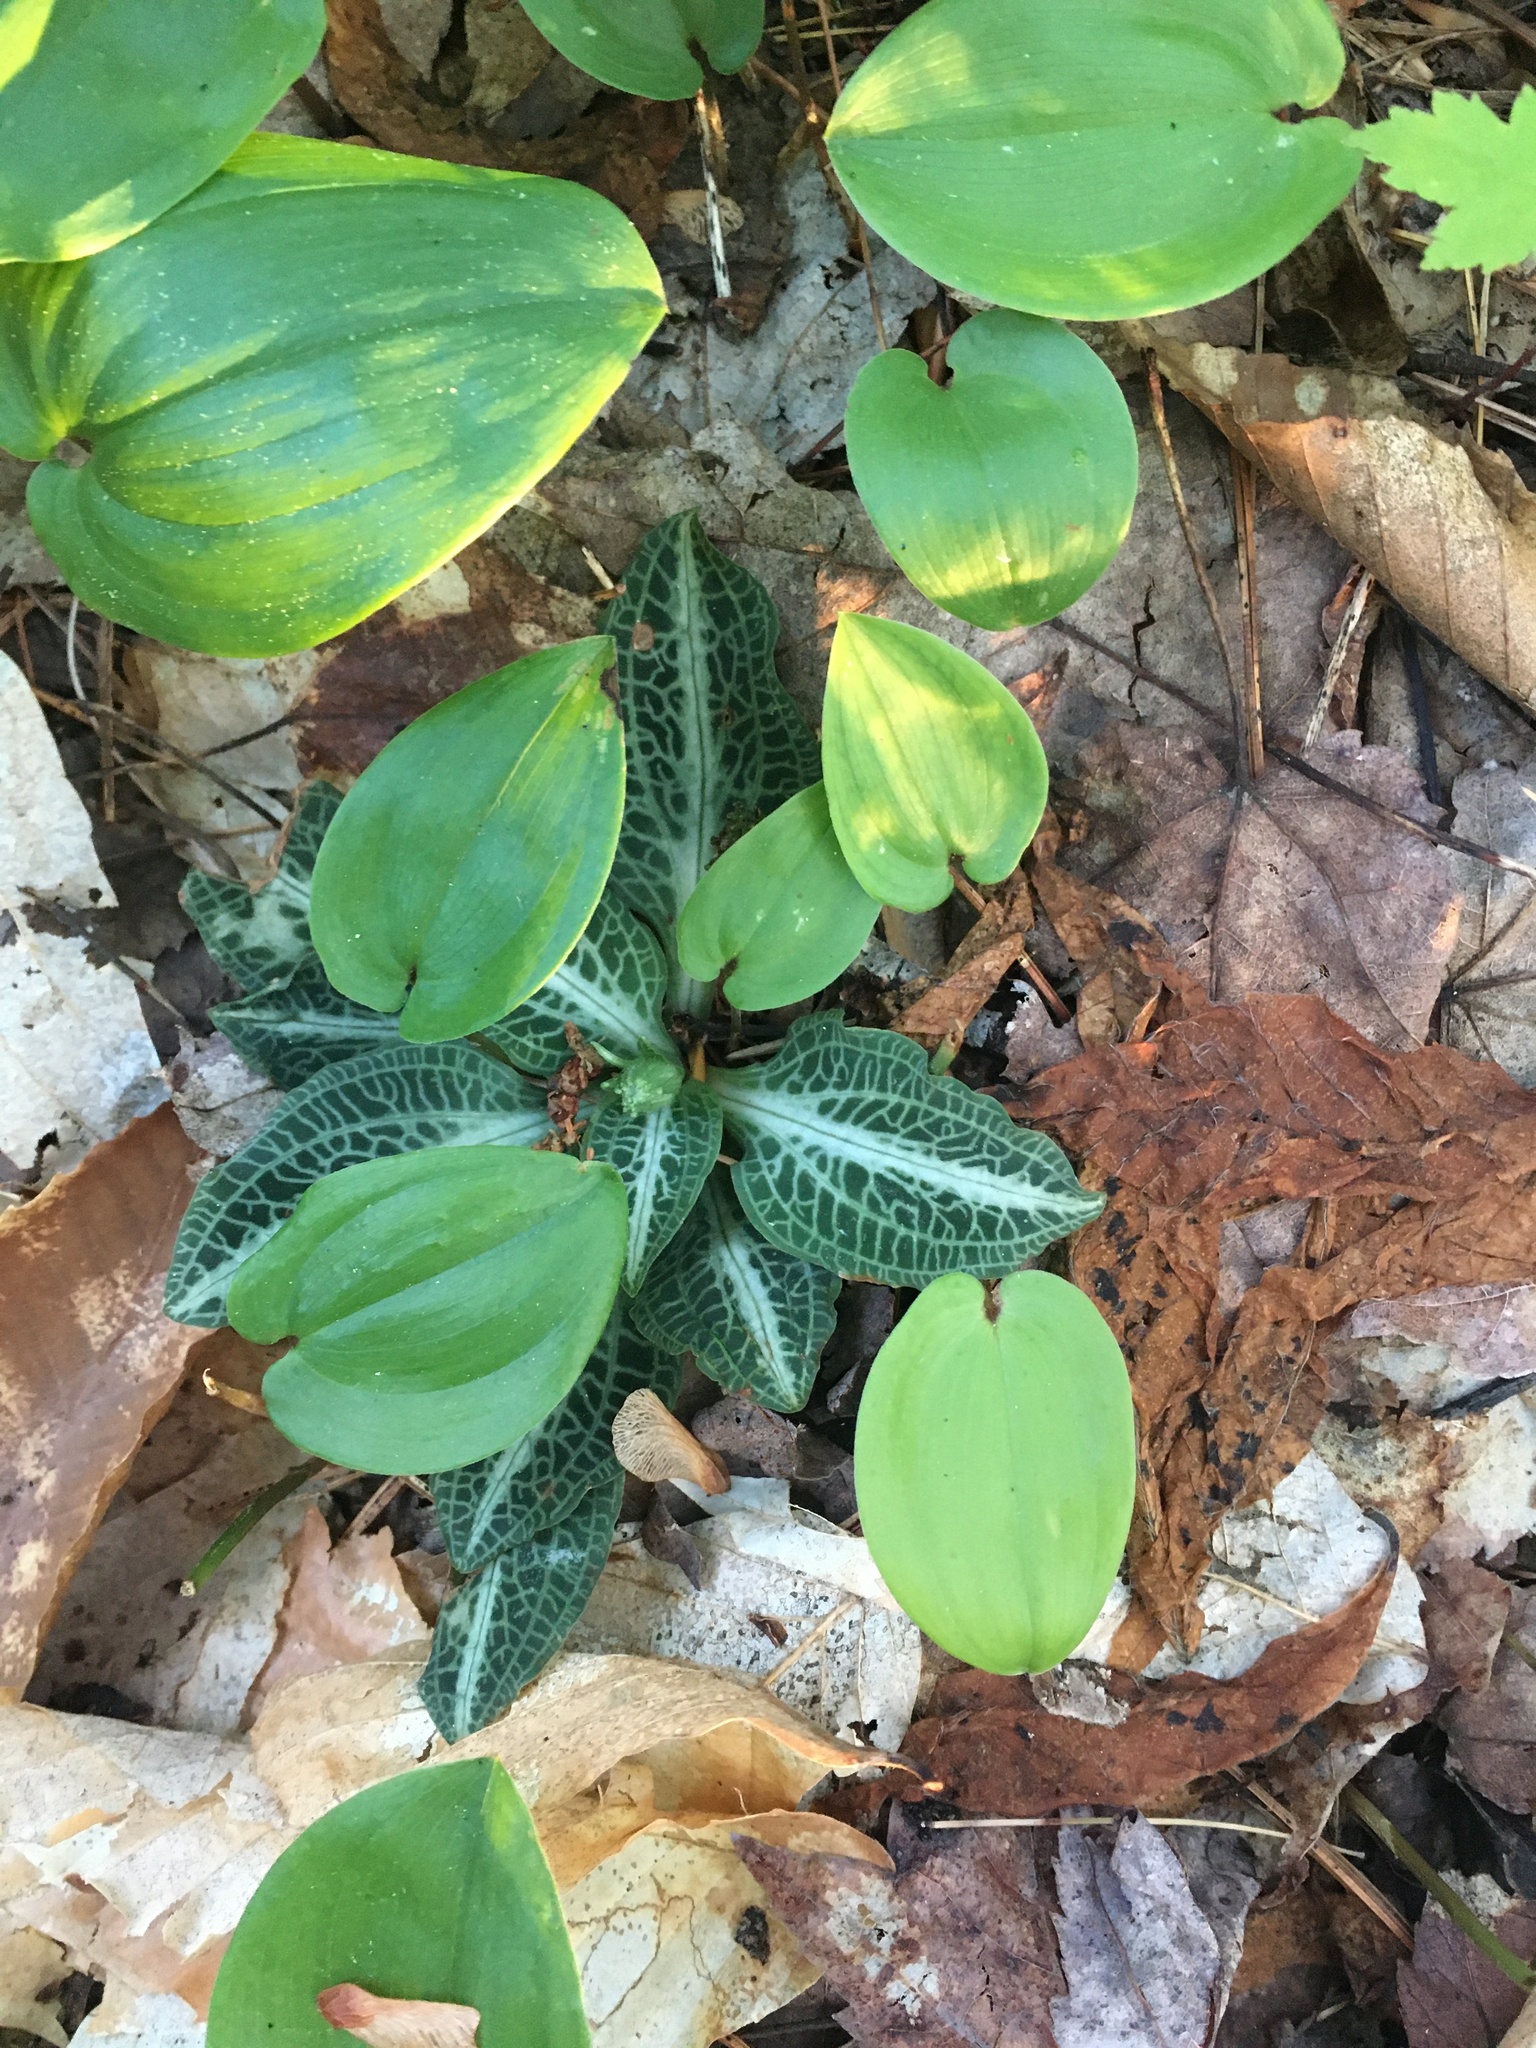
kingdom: Plantae
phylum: Tracheophyta
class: Liliopsida
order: Asparagales
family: Orchidaceae
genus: Goodyera
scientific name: Goodyera pubescens
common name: Downy rattlesnake-plantain
